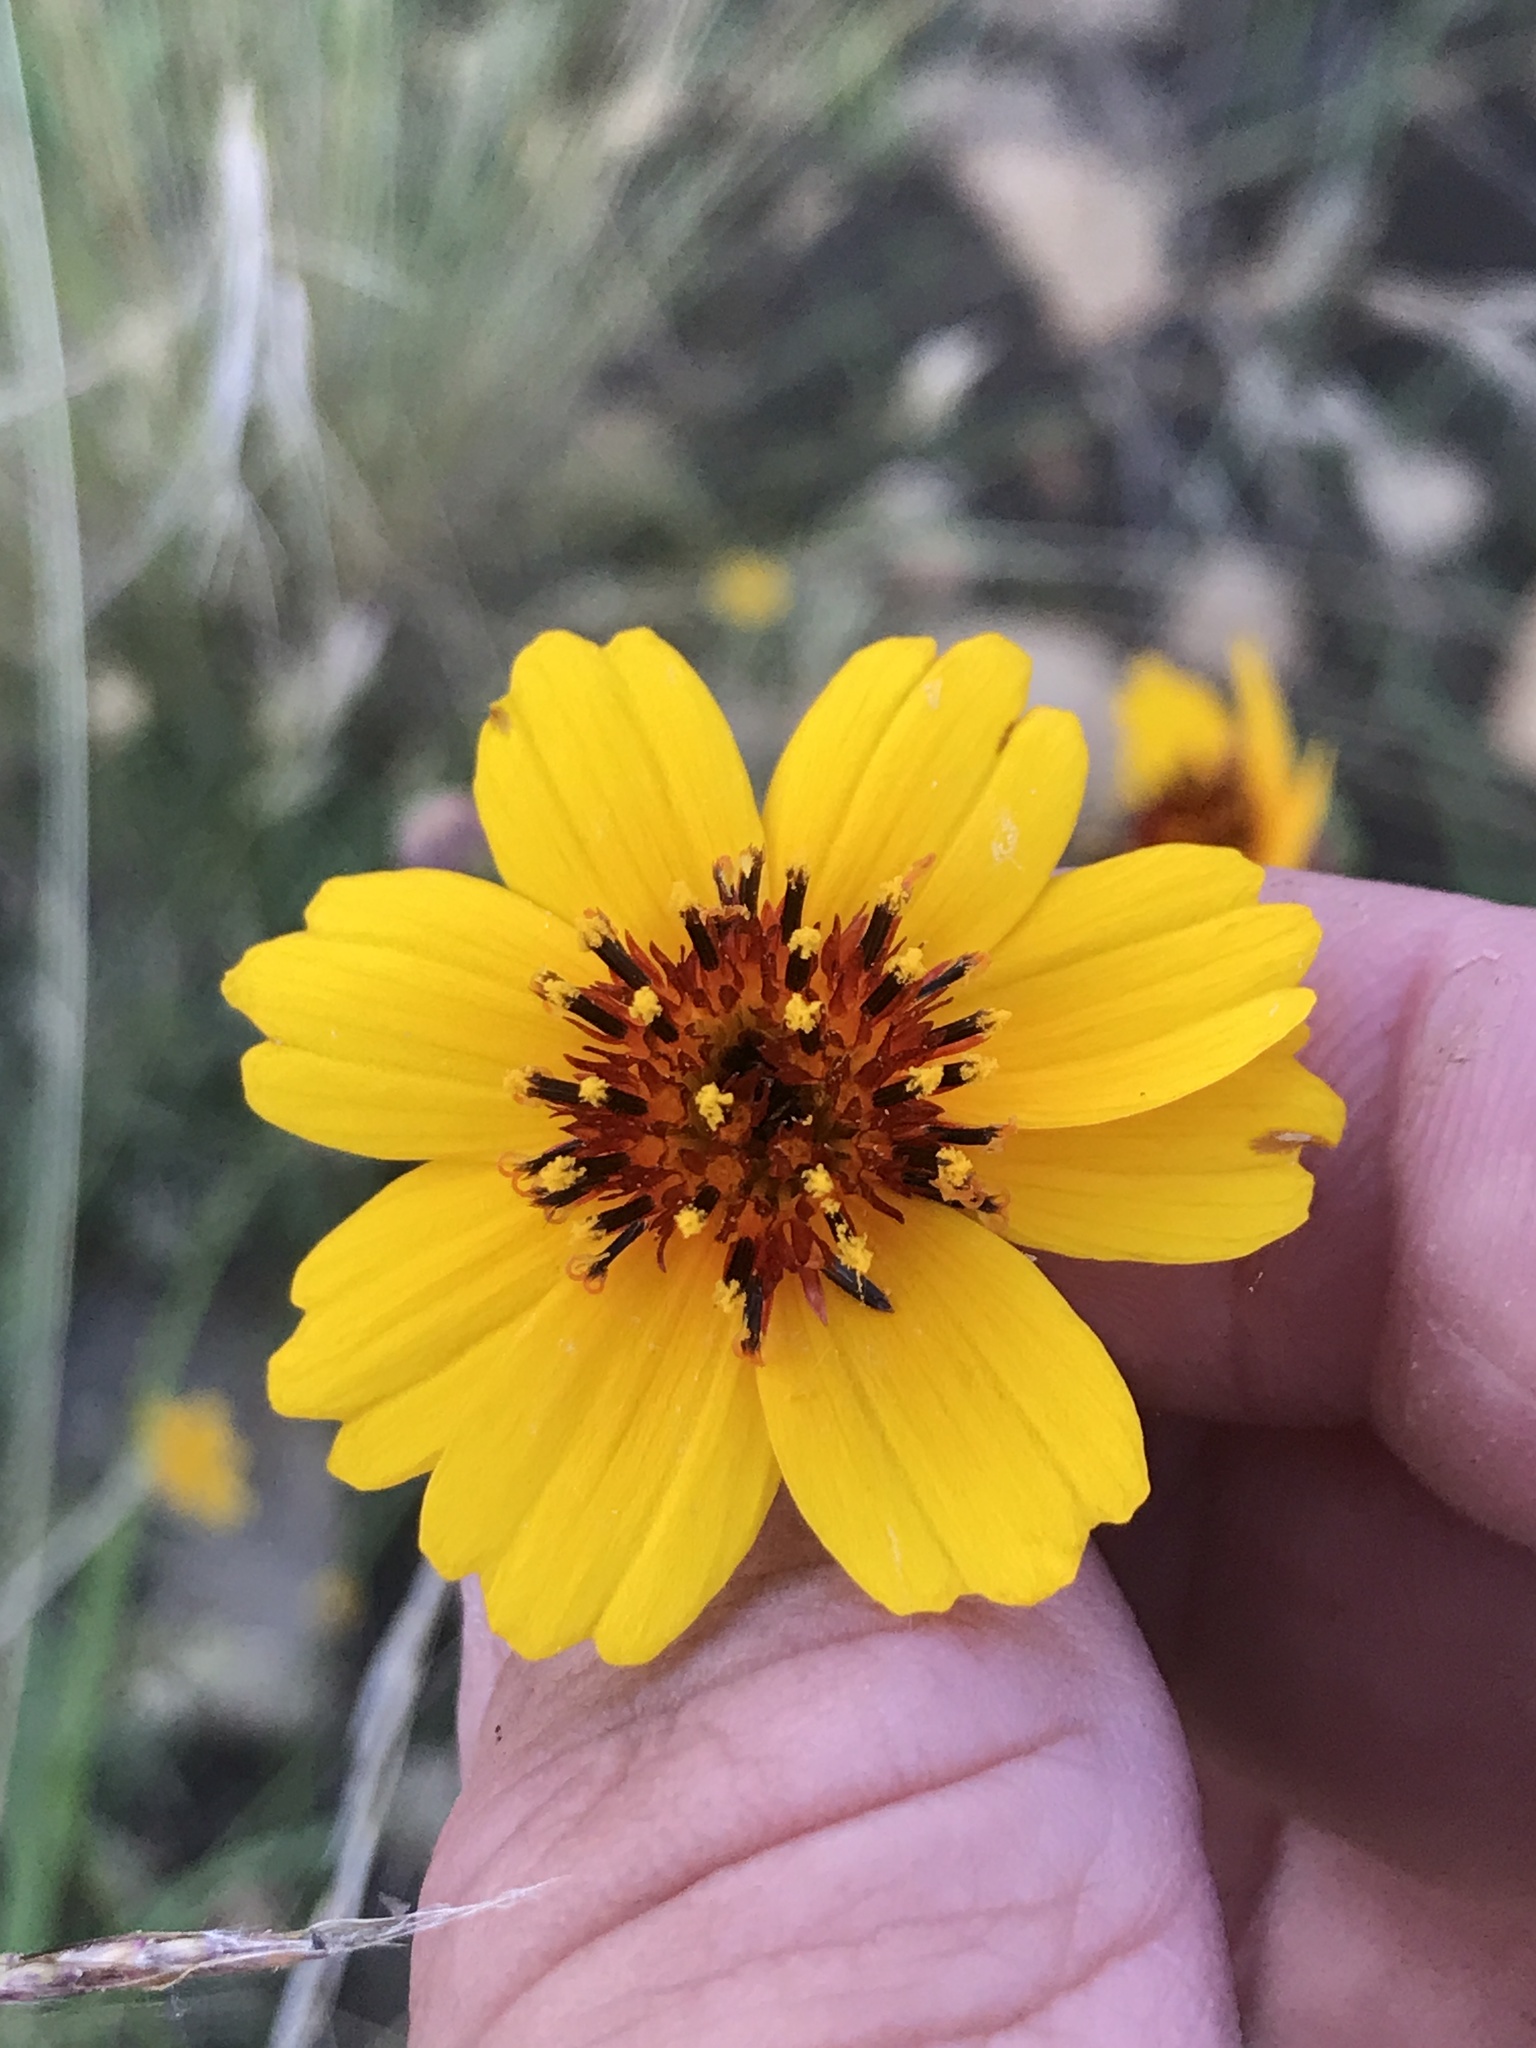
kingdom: Plantae
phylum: Tracheophyta
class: Magnoliopsida
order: Asterales
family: Asteraceae
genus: Thelesperma
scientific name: Thelesperma filifolium
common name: Stiff greenthread
